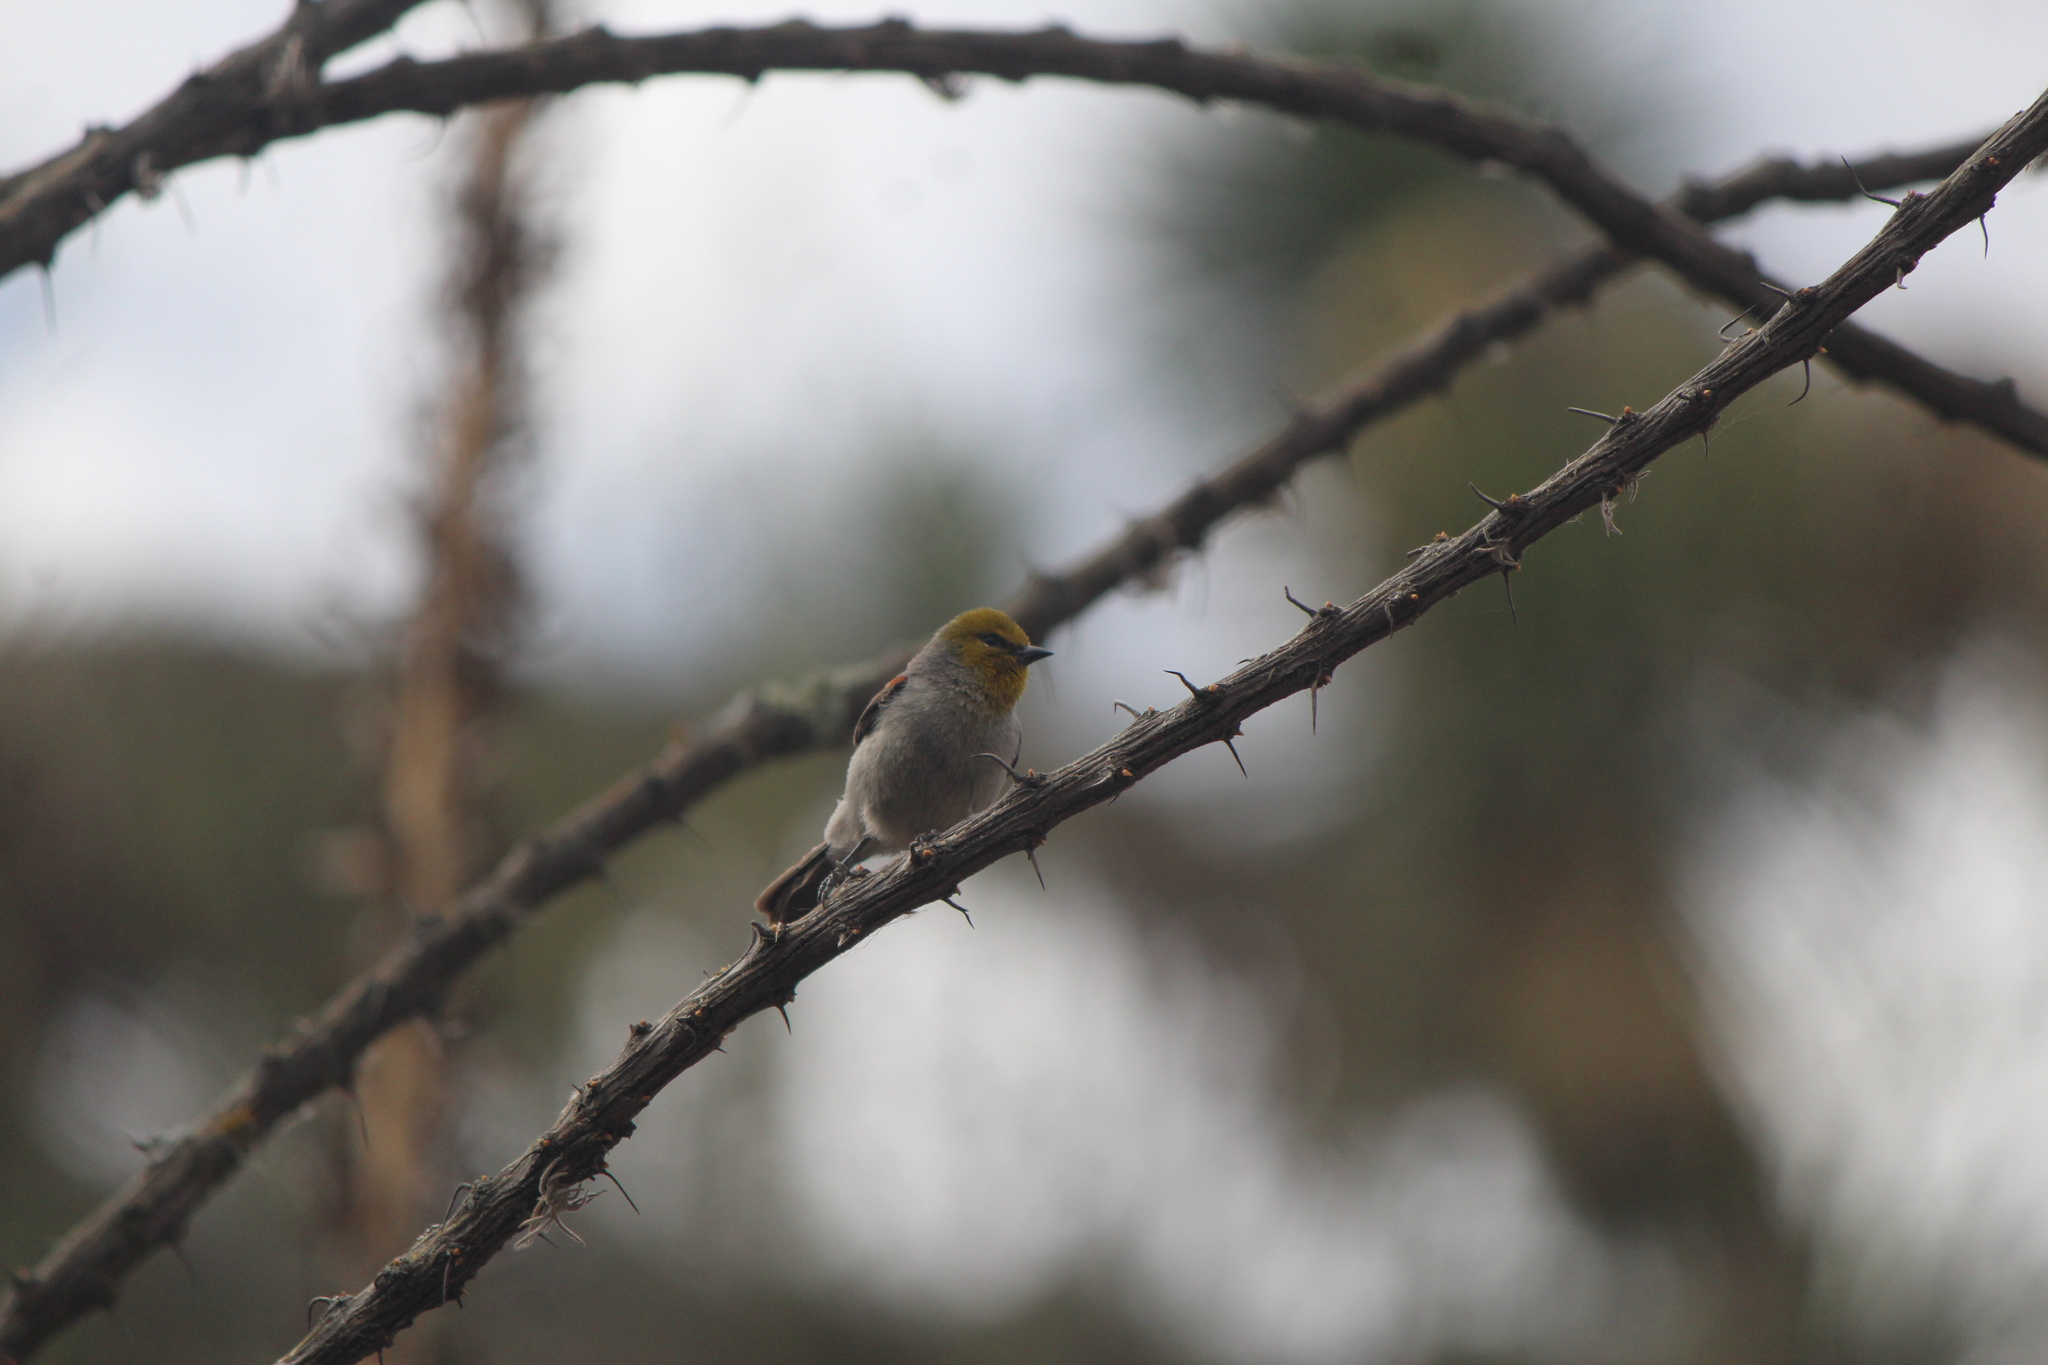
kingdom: Animalia
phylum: Chordata
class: Aves
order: Passeriformes
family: Remizidae
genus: Auriparus
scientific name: Auriparus flaviceps
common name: Verdin
